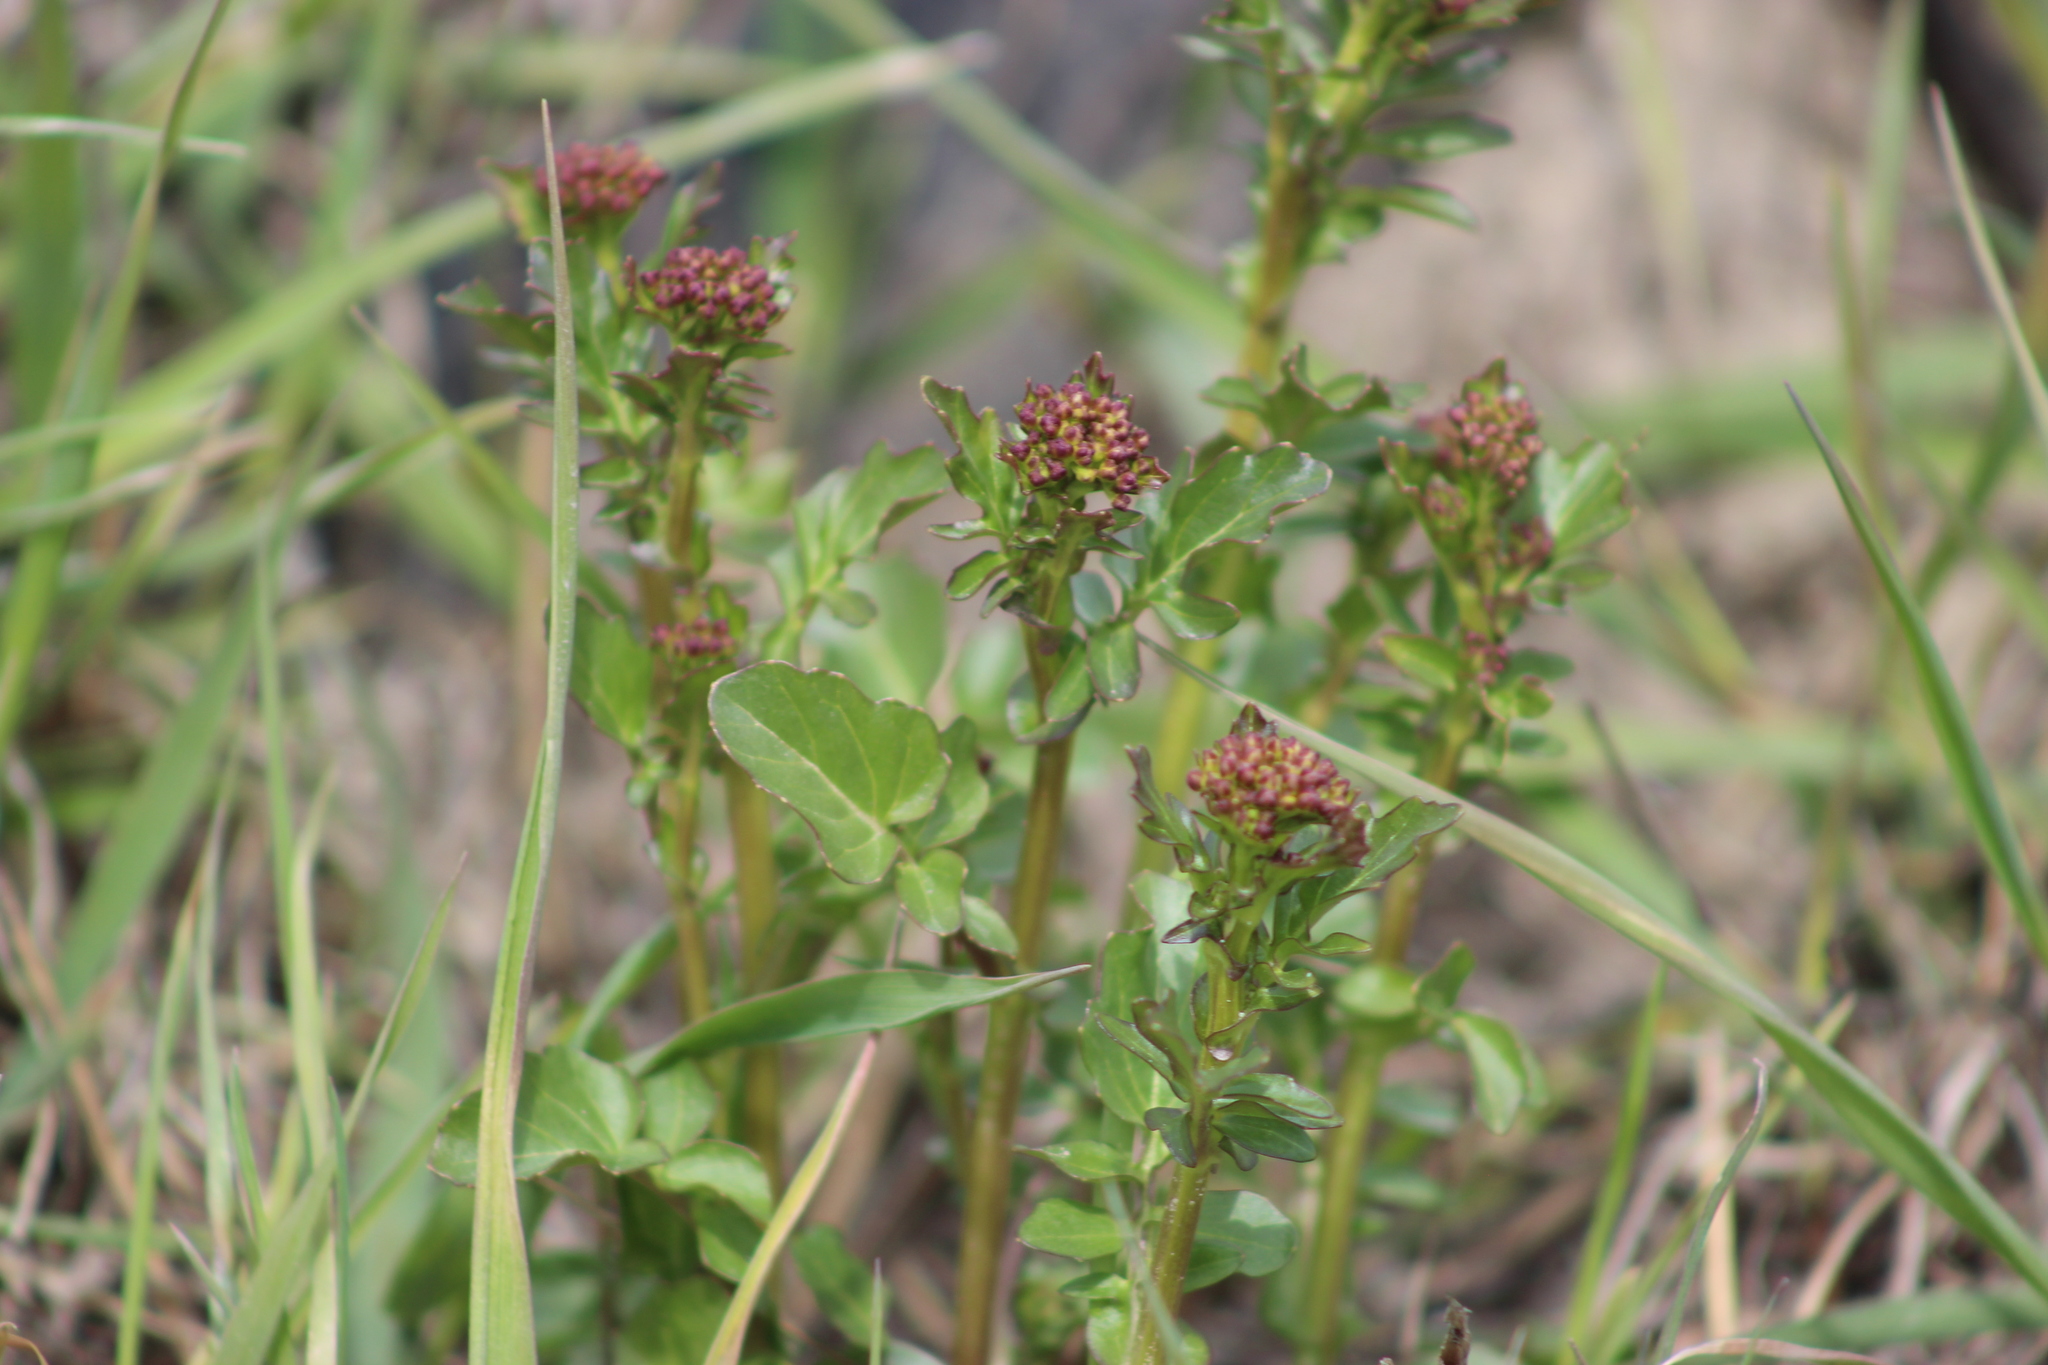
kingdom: Plantae
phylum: Tracheophyta
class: Magnoliopsida
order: Brassicales
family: Brassicaceae
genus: Barbarea
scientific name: Barbarea vulgaris
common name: Cressy-greens
